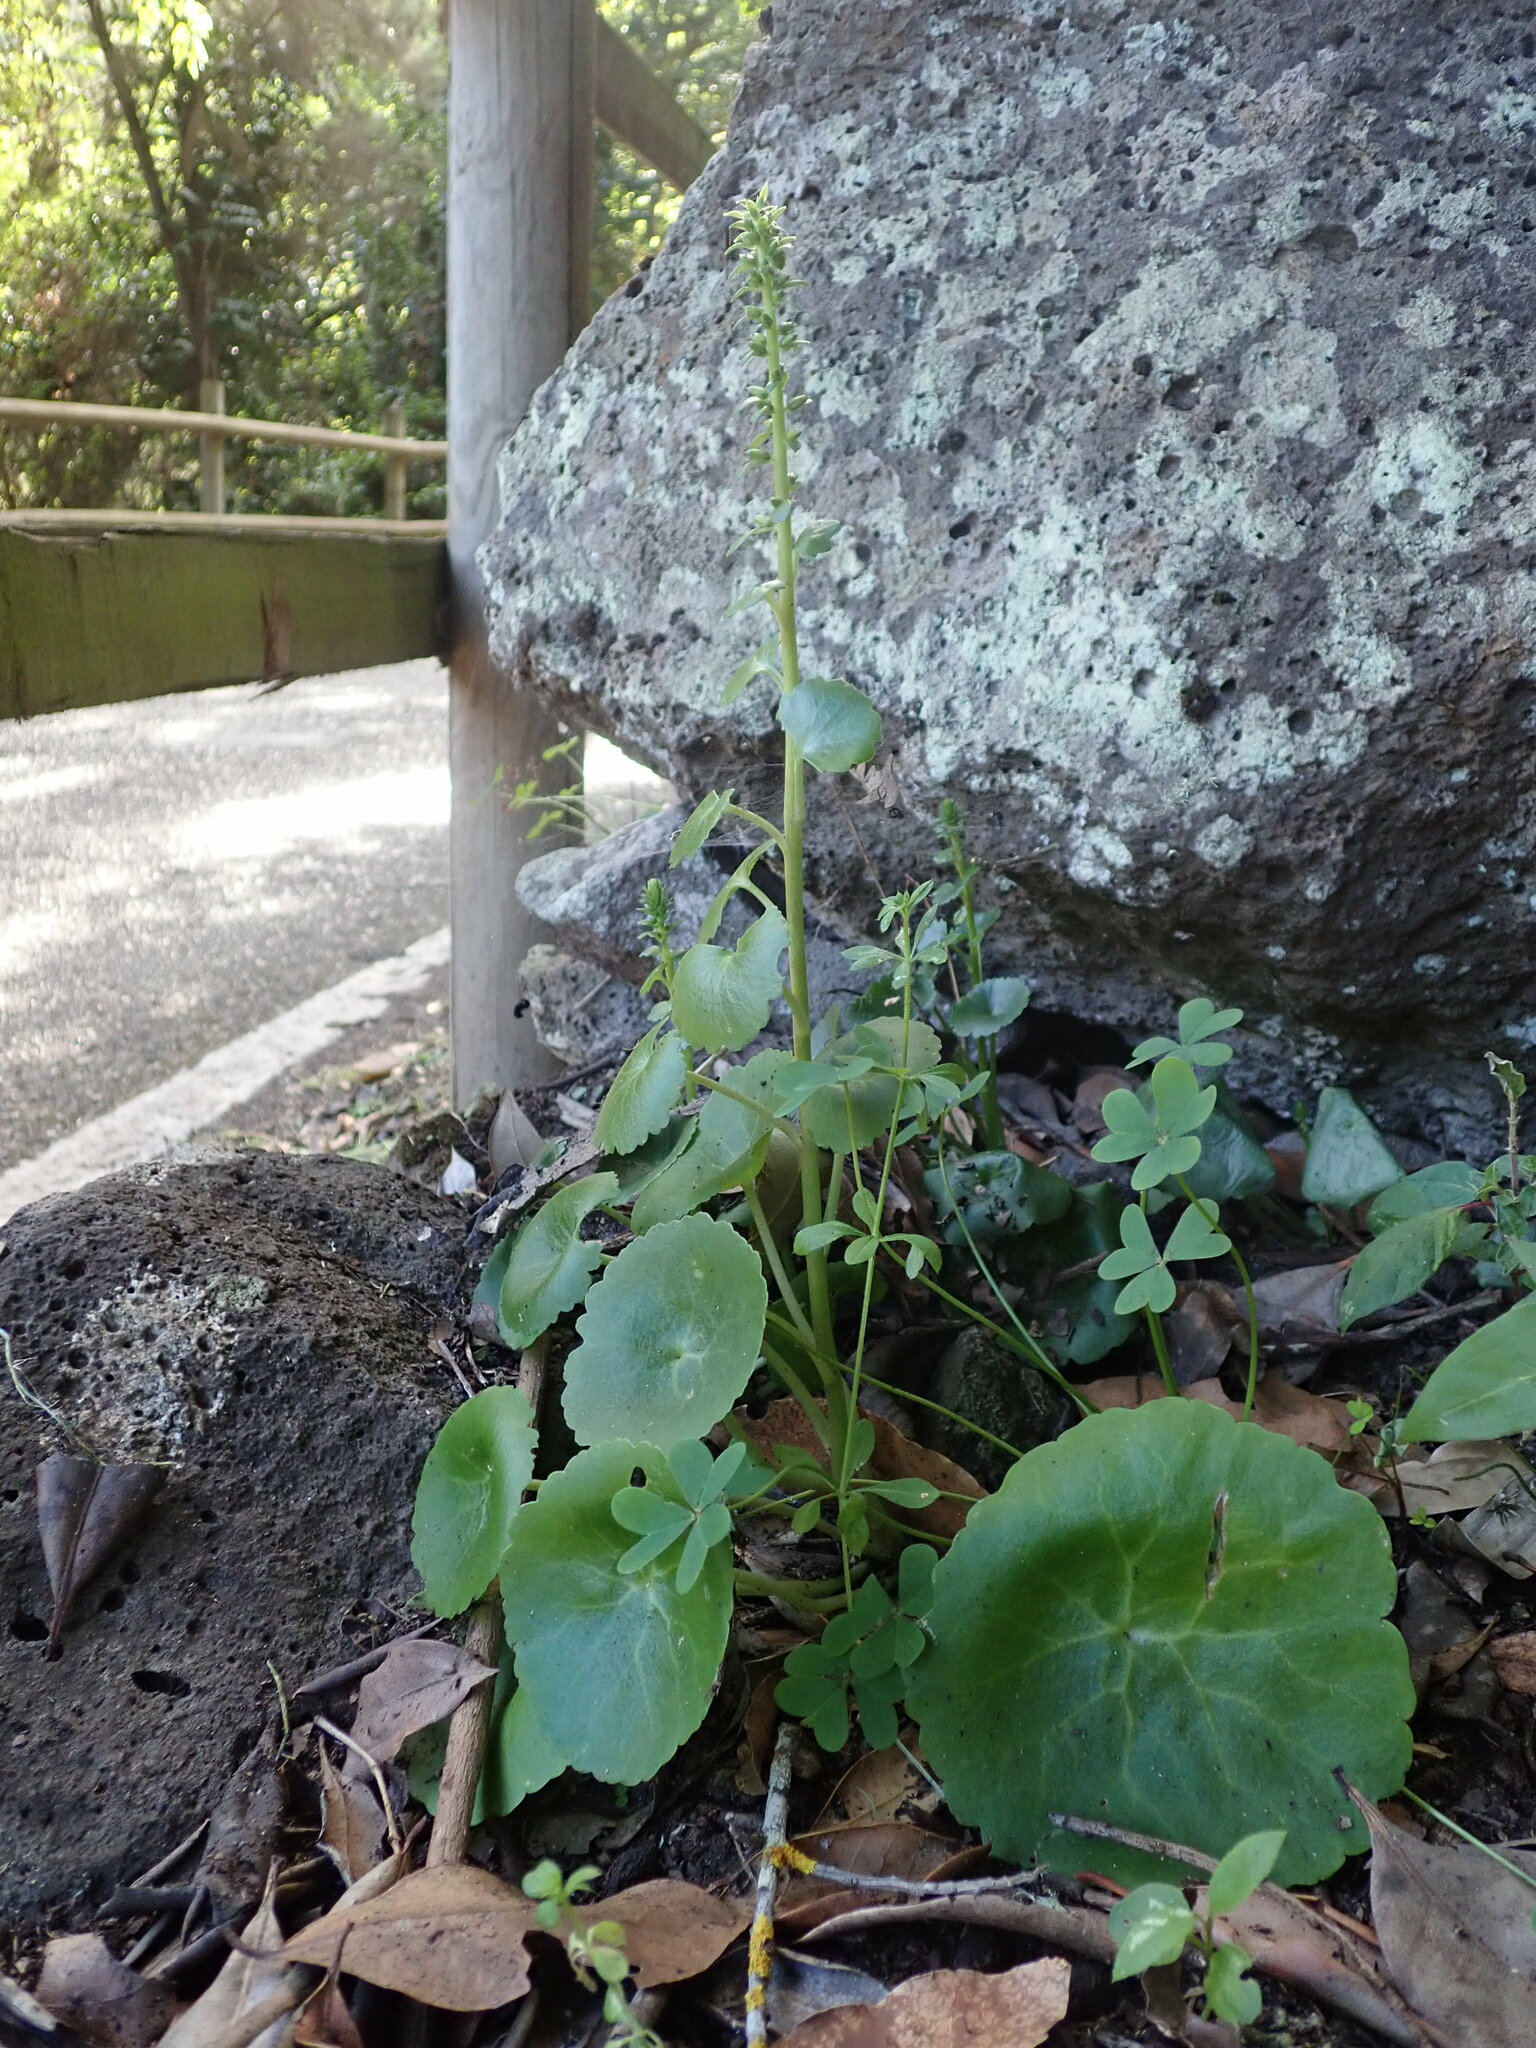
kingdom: Plantae
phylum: Tracheophyta
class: Magnoliopsida
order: Saxifragales
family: Crassulaceae
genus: Umbilicus
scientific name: Umbilicus horizontalis
